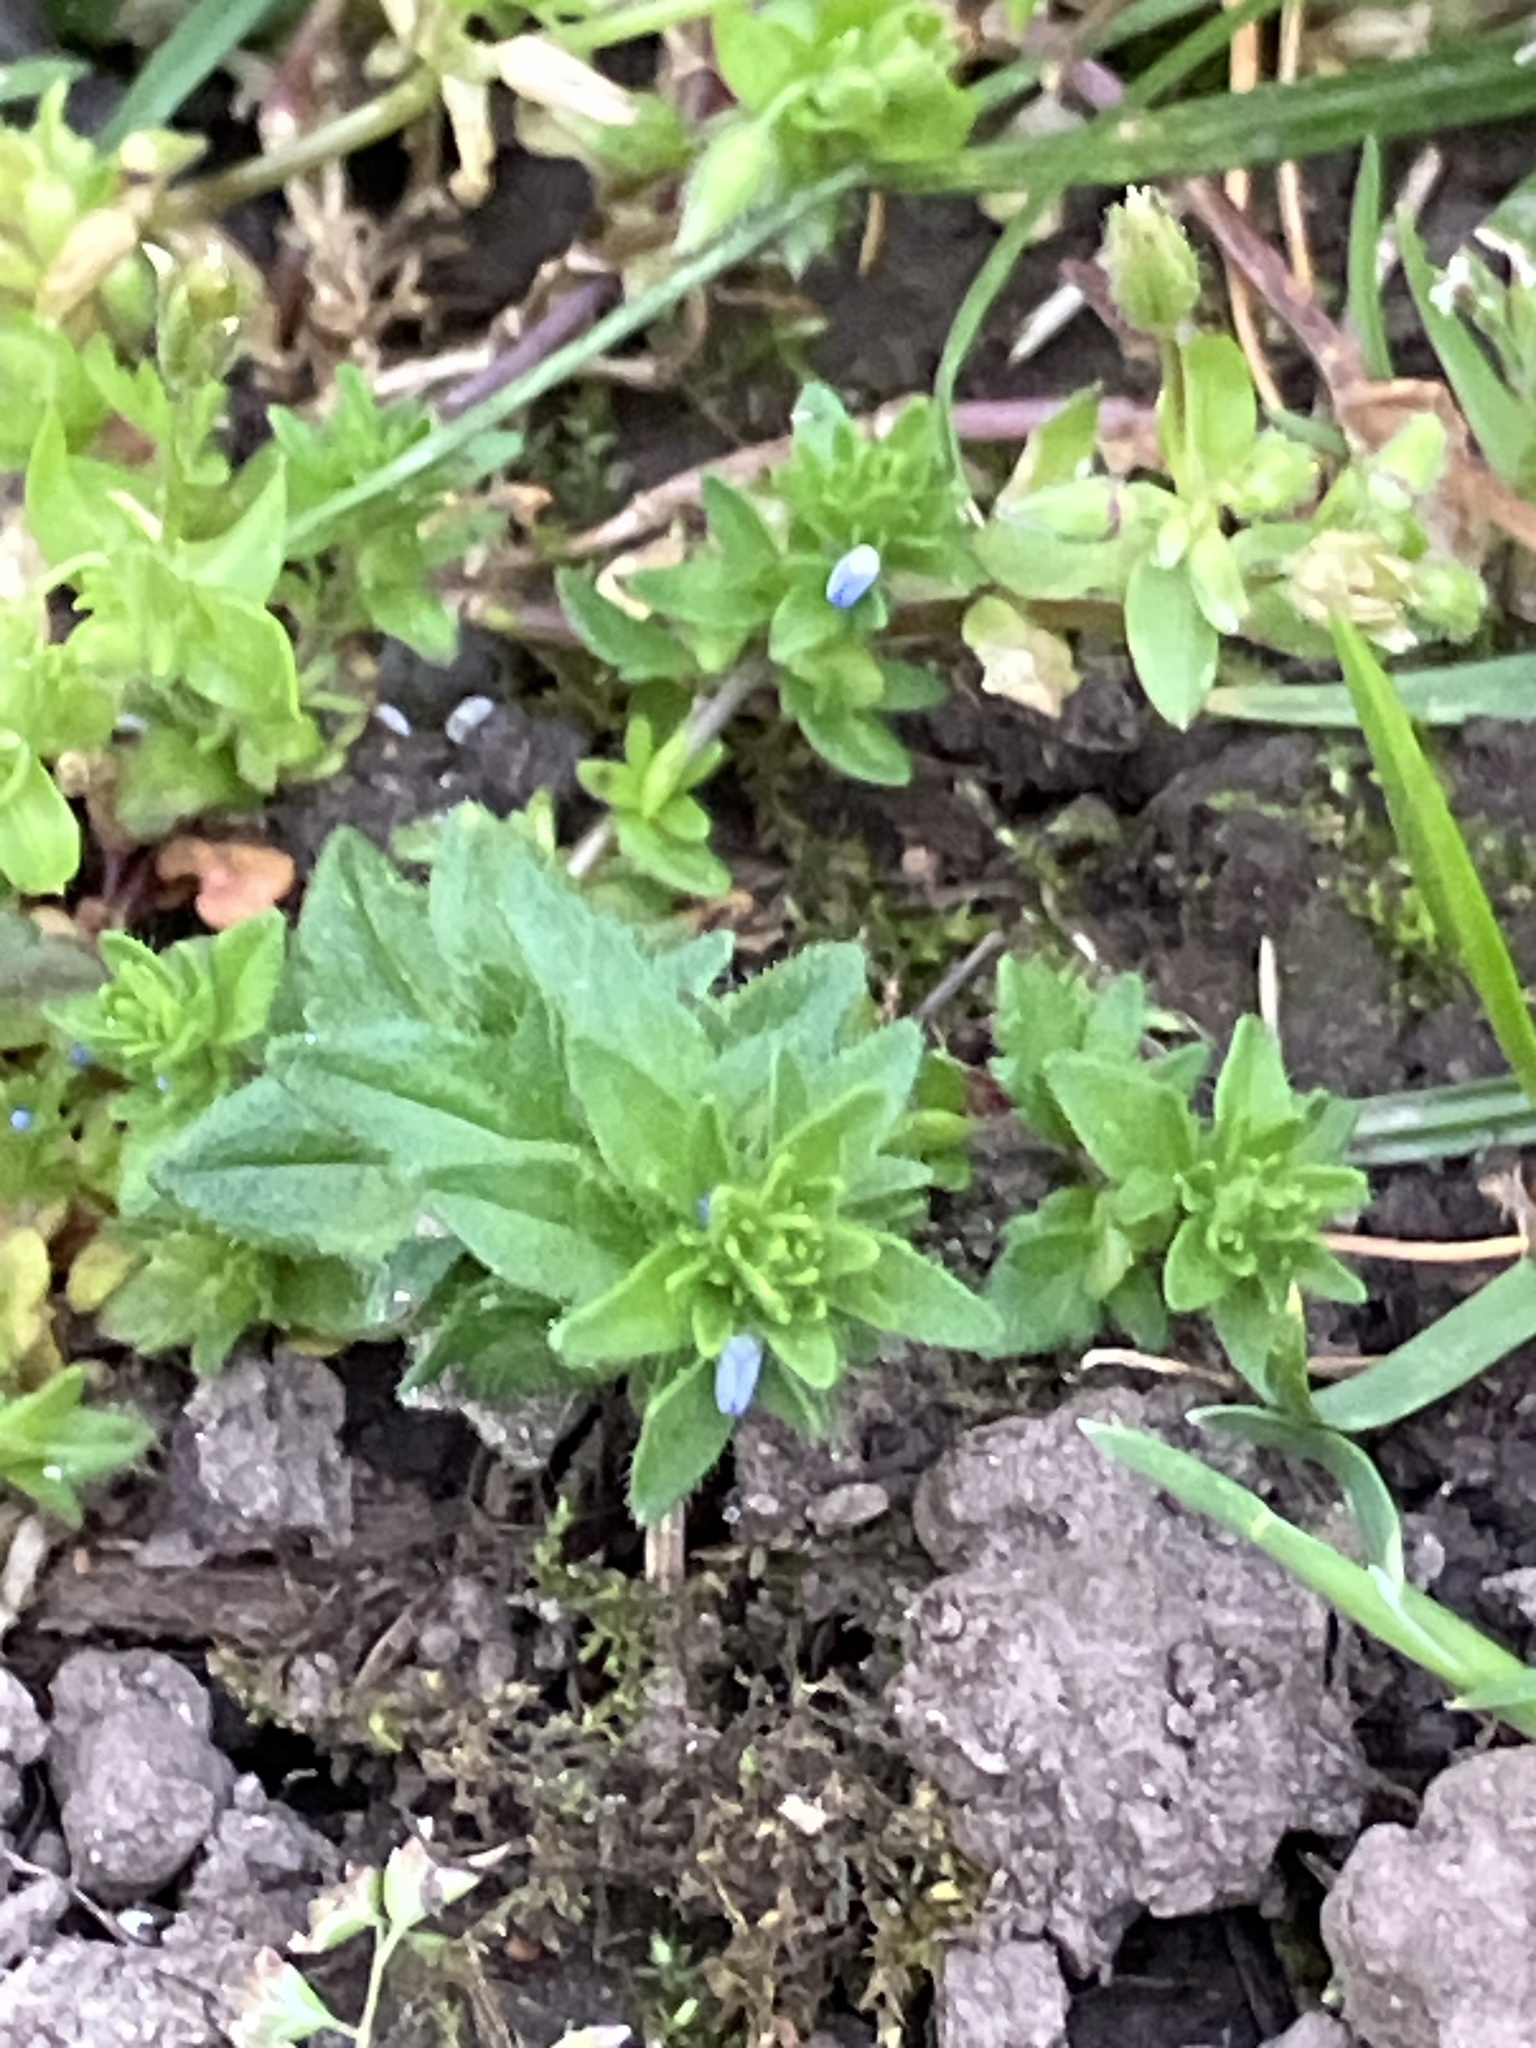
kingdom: Plantae
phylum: Tracheophyta
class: Magnoliopsida
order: Lamiales
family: Plantaginaceae
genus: Veronica
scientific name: Veronica arvensis
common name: Corn speedwell
